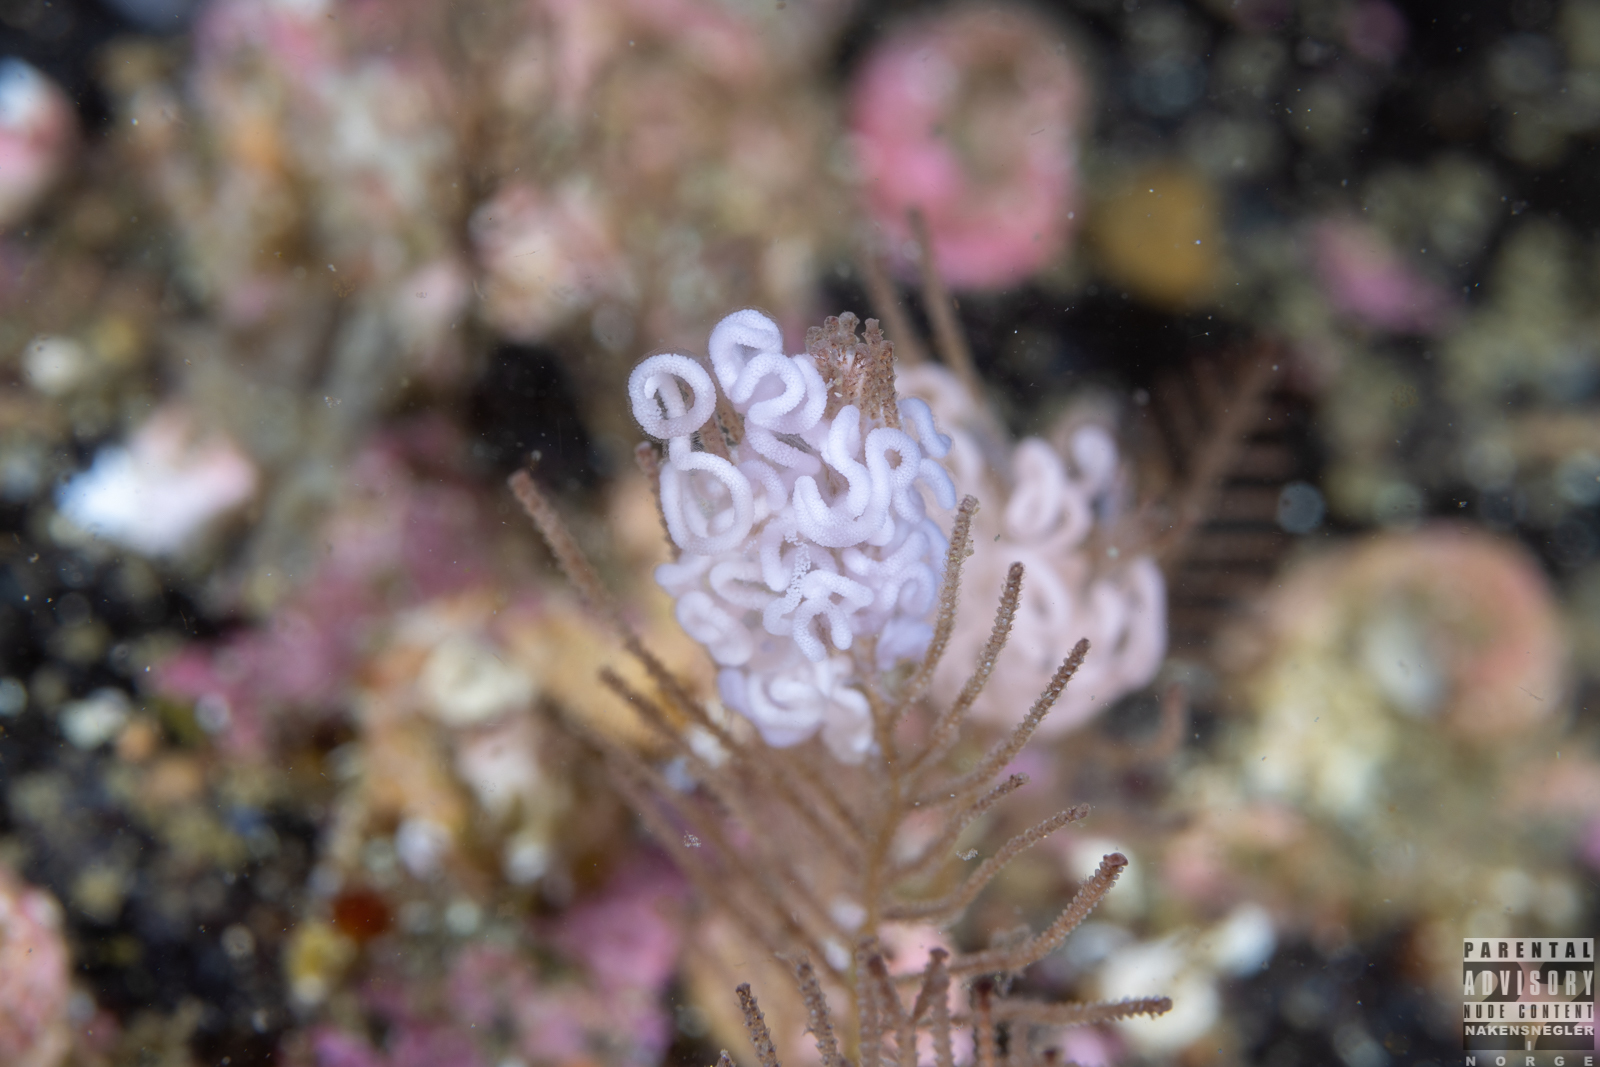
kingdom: Animalia
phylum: Mollusca
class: Gastropoda
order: Nudibranchia
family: Dendronotidae
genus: Dendronotus
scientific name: Dendronotus yrjargul
